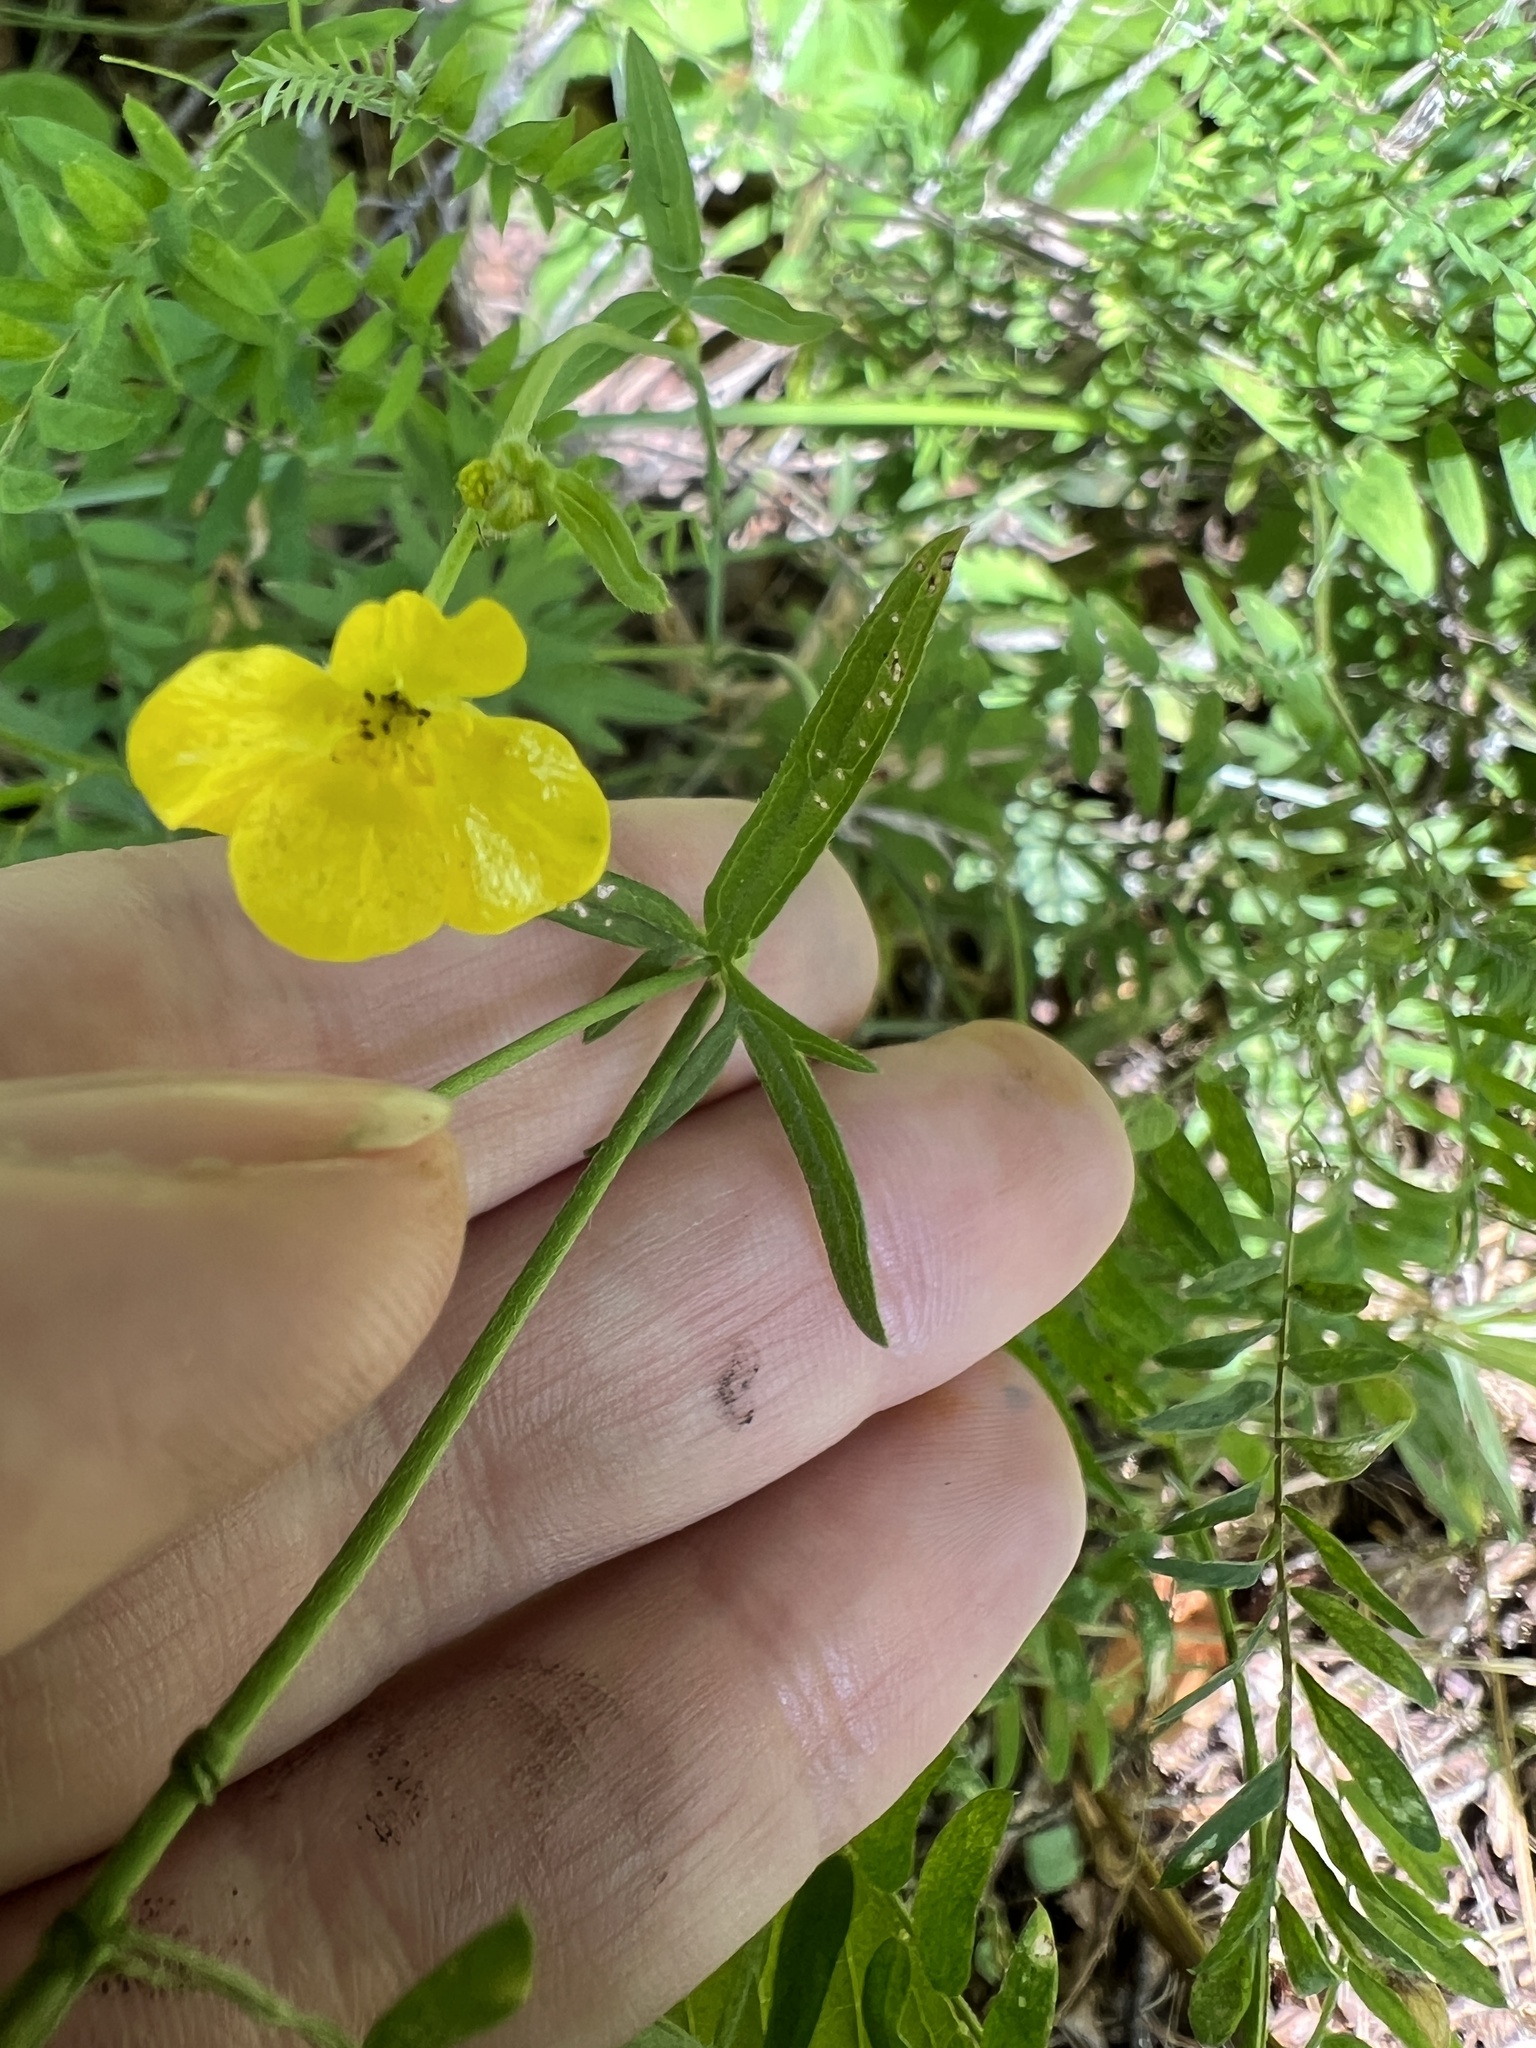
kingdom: Plantae
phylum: Tracheophyta
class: Magnoliopsida
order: Ranunculales
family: Ranunculaceae
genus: Ranunculus
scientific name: Ranunculus acris
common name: Meadow buttercup
